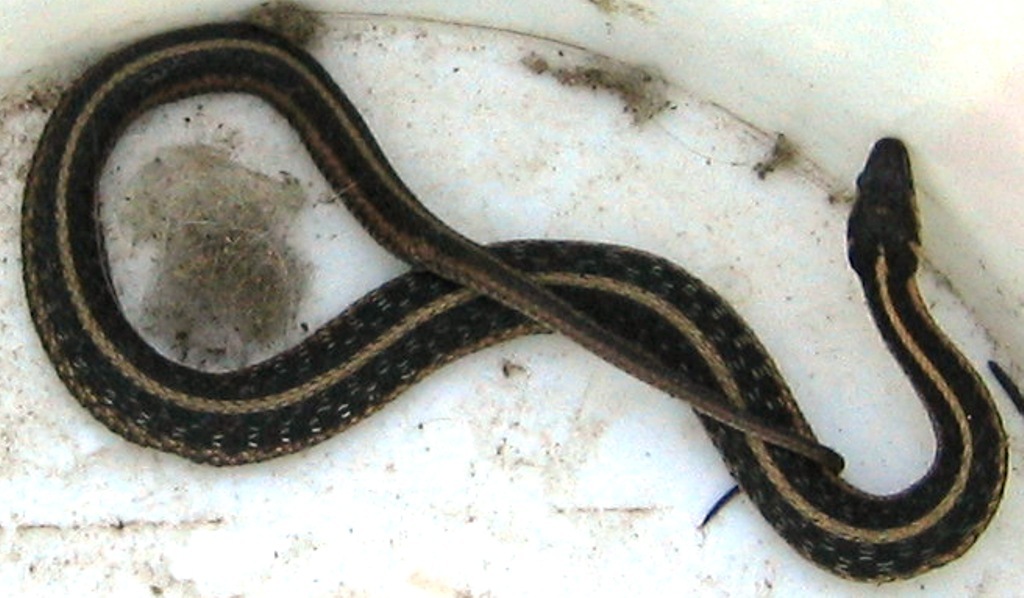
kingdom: Animalia
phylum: Chordata
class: Squamata
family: Colubridae
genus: Thamnophis
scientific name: Thamnophis sirtalis
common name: Common garter snake
